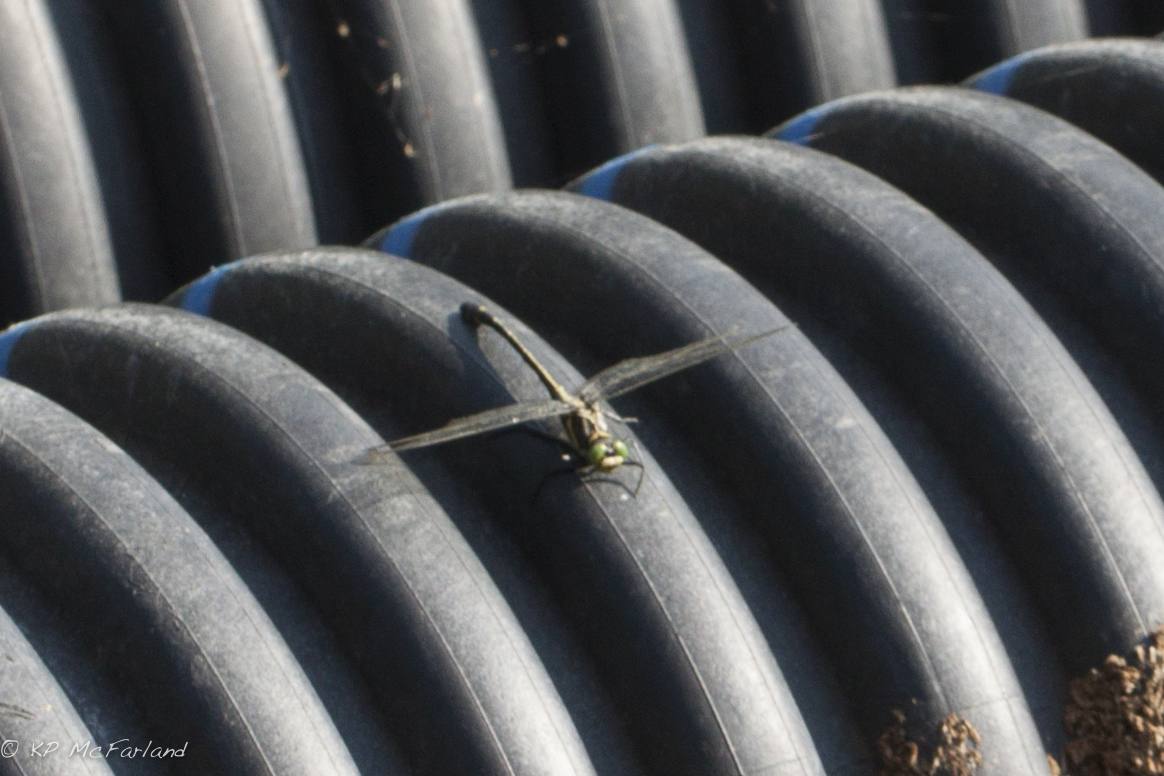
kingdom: Animalia
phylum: Arthropoda
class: Insecta
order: Odonata
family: Gomphidae
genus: Hagenius
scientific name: Hagenius brevistylus
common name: Dragonhunter
